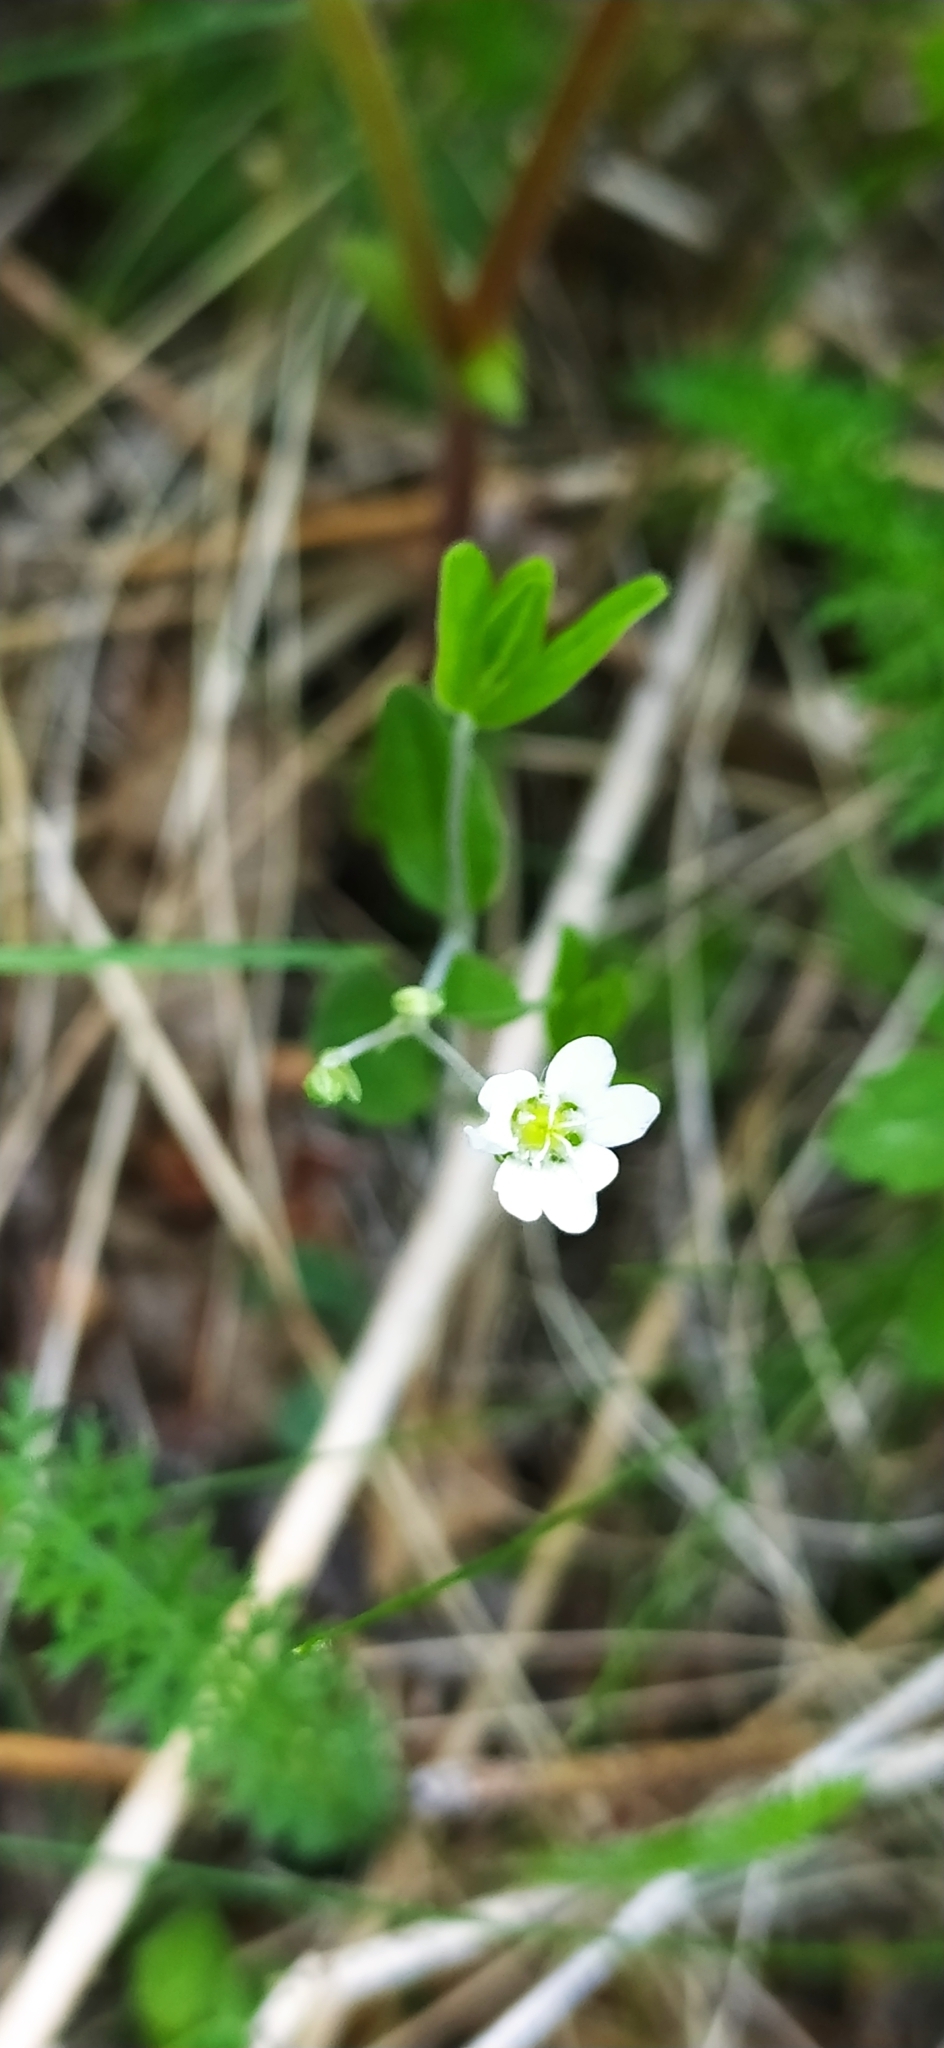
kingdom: Plantae
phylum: Tracheophyta
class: Magnoliopsida
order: Caryophyllales
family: Caryophyllaceae
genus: Moehringia
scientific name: Moehringia lateriflora
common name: Blunt-leaved sandwort
